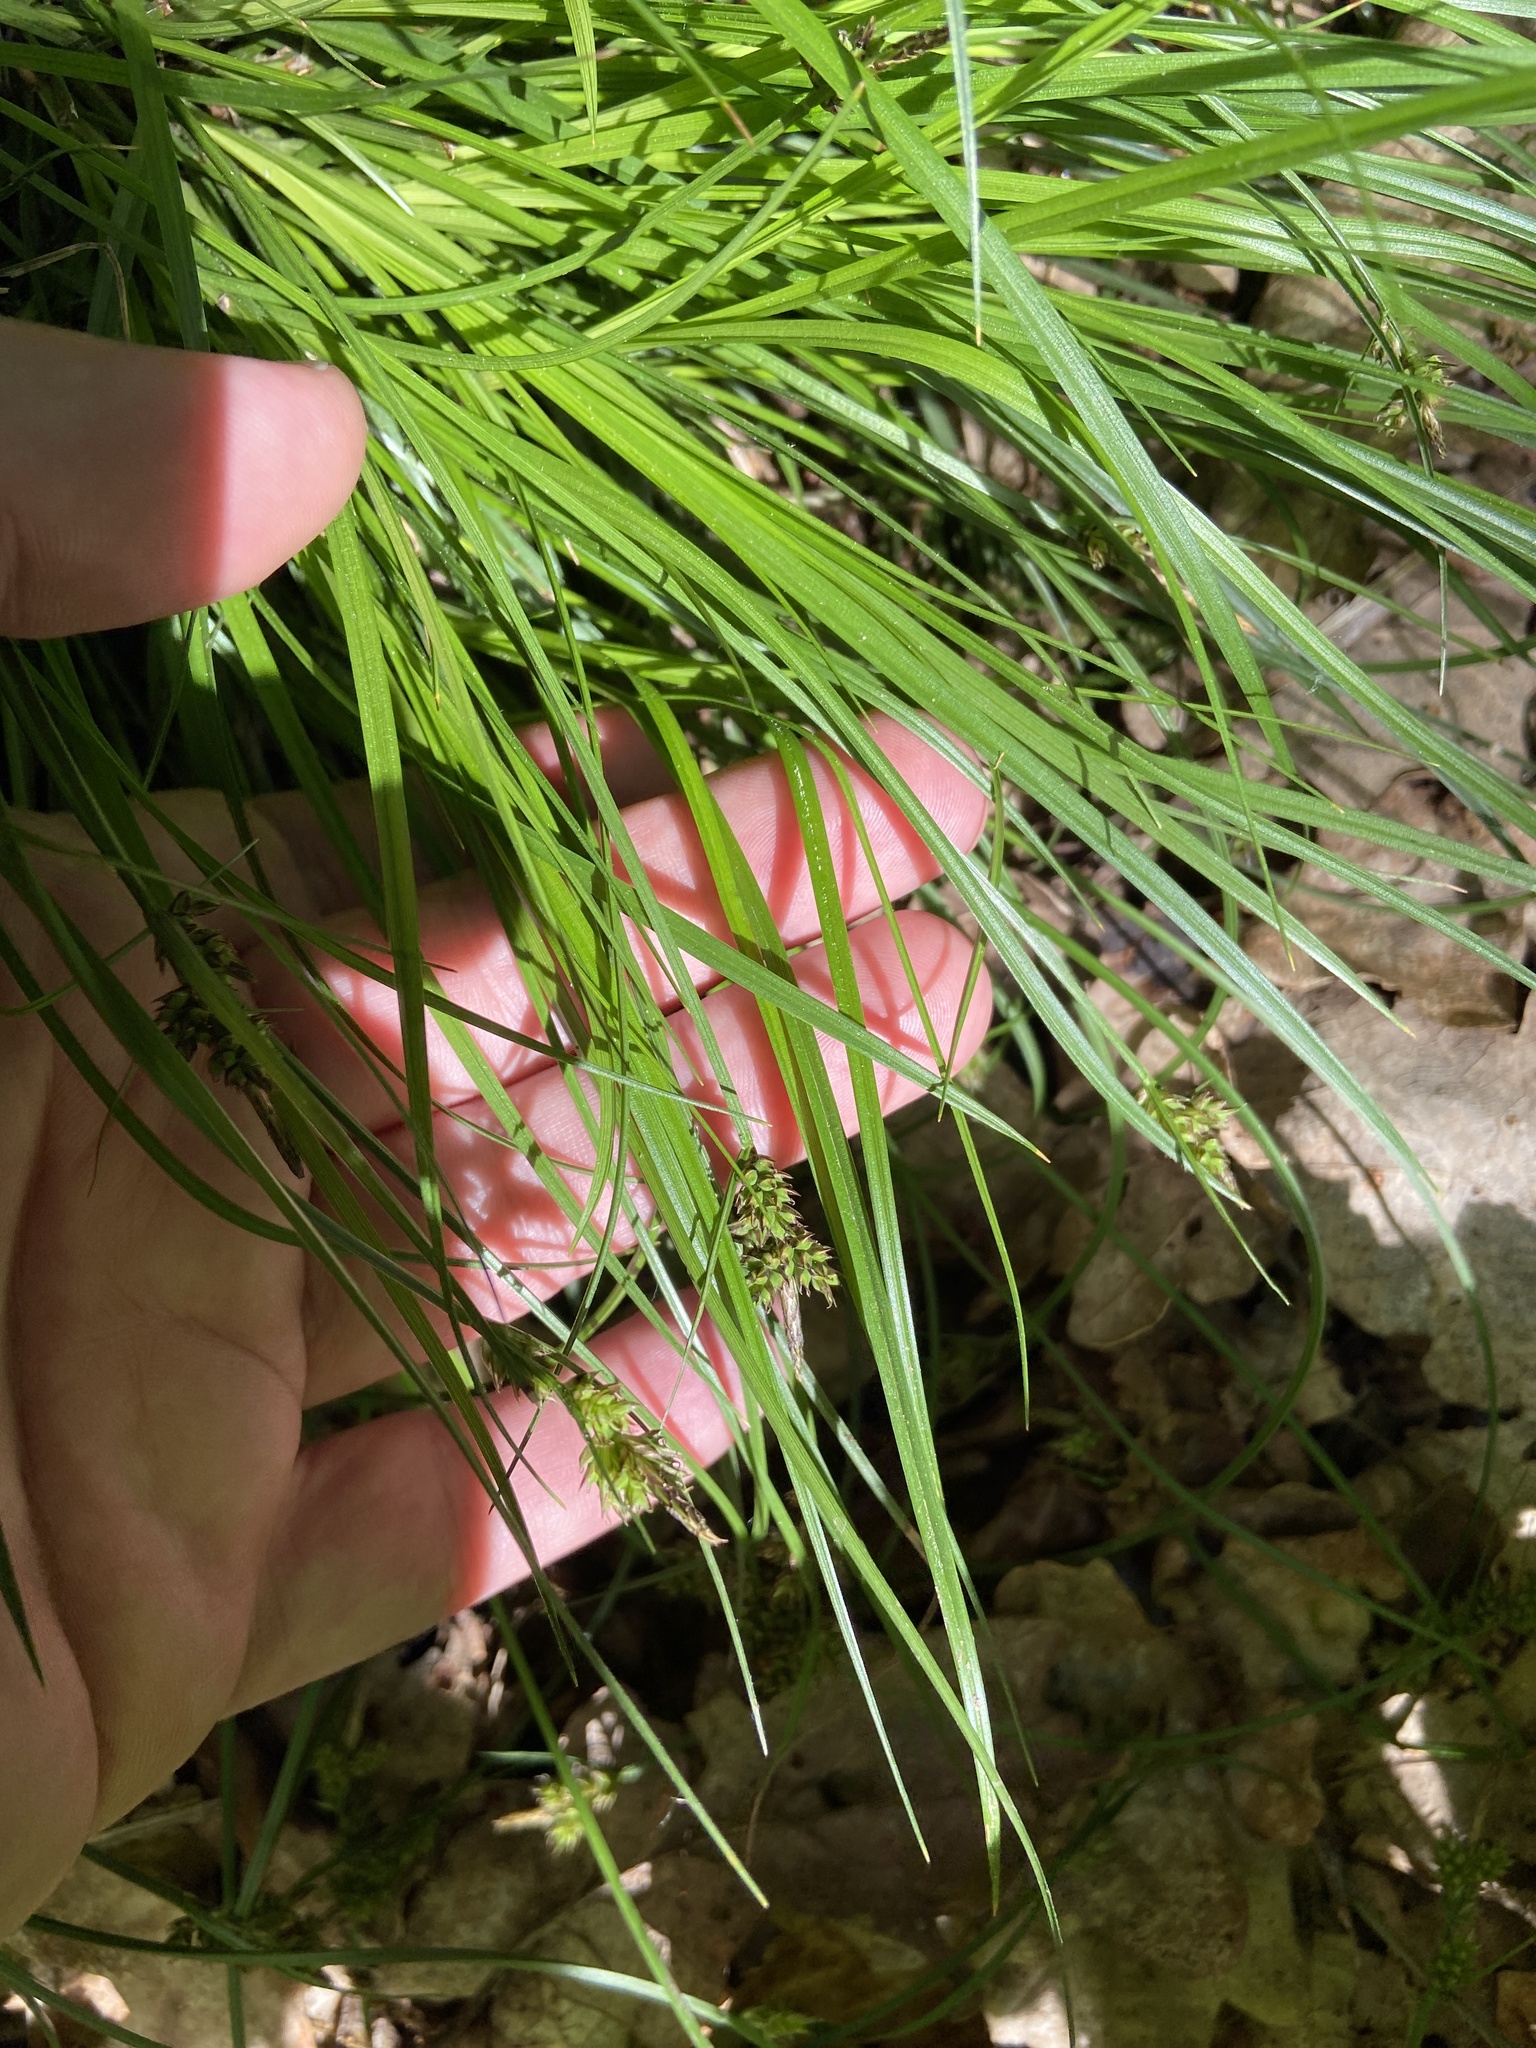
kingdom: Plantae
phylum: Tracheophyta
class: Liliopsida
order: Poales
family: Cyperaceae
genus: Carex
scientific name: Carex pilulifera
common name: Pill sedge
